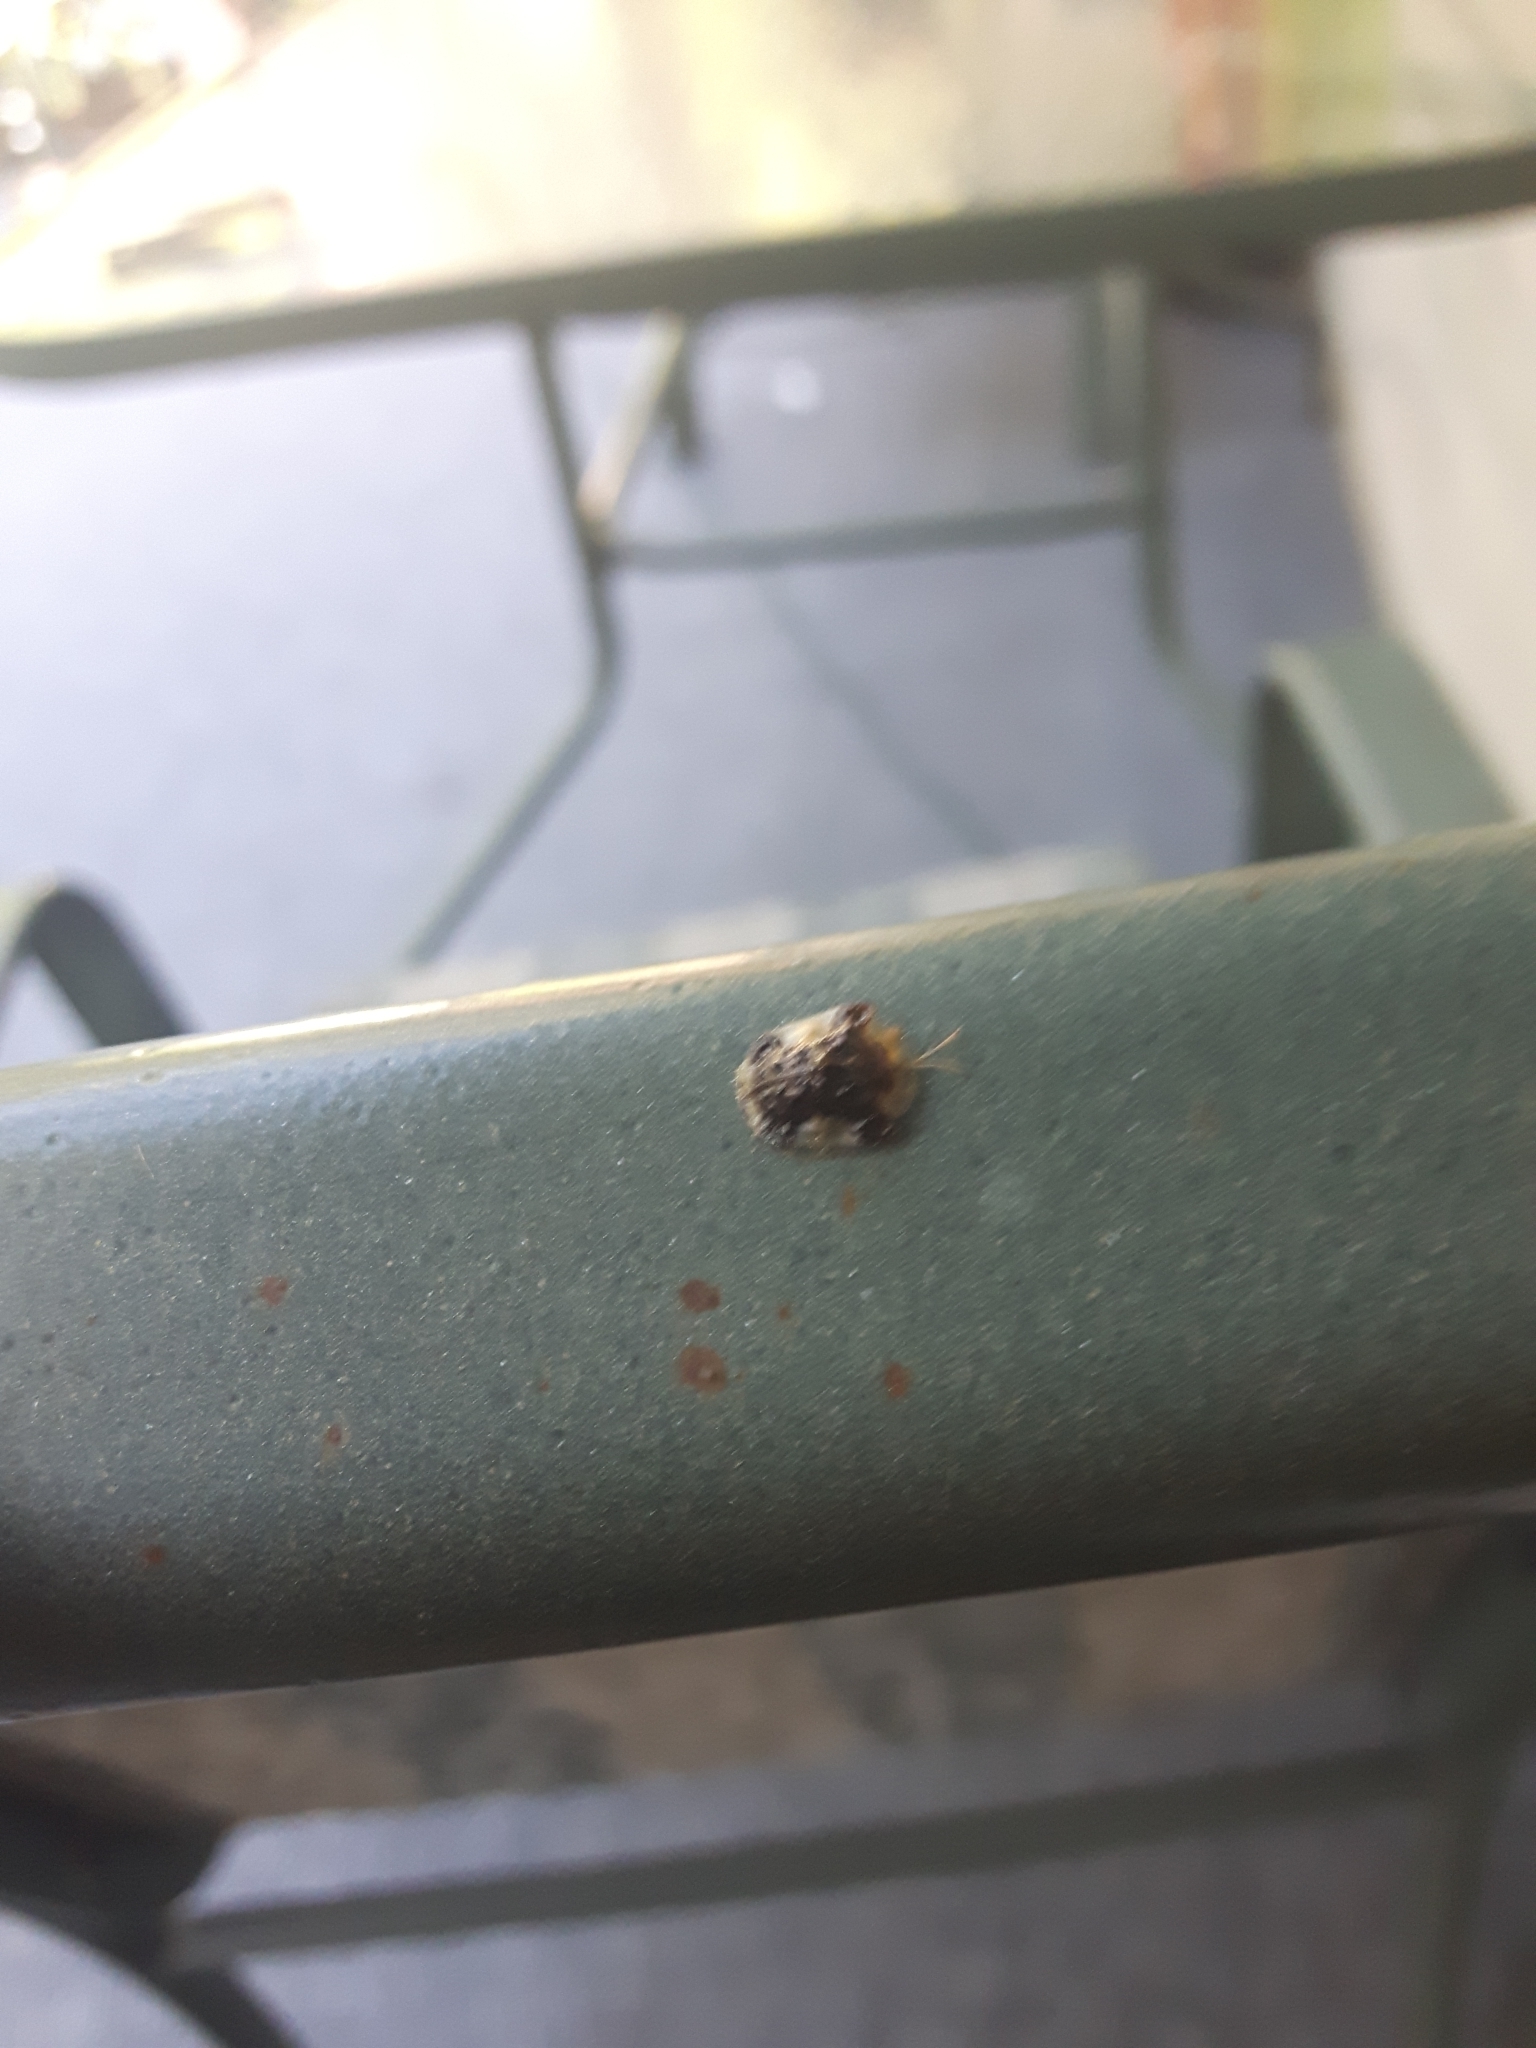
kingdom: Animalia
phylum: Arthropoda
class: Insecta
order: Coleoptera
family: Chrysomelidae
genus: Helocassis
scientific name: Helocassis clavata
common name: Clavate tortoise beetle
